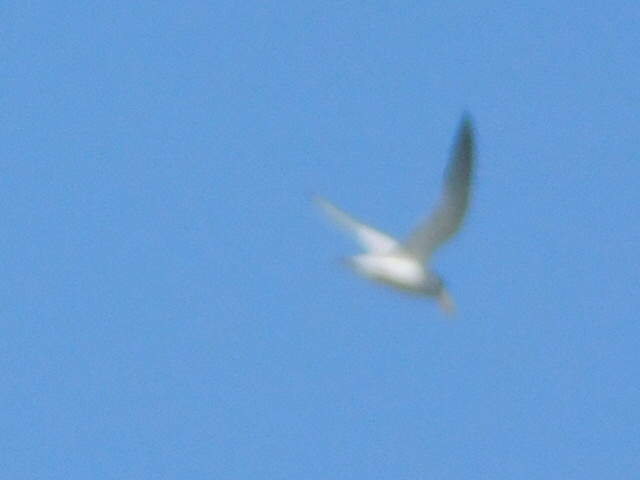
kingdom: Animalia
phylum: Chordata
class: Aves
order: Charadriiformes
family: Laridae
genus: Sternula
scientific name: Sternula antillarum
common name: Least tern
